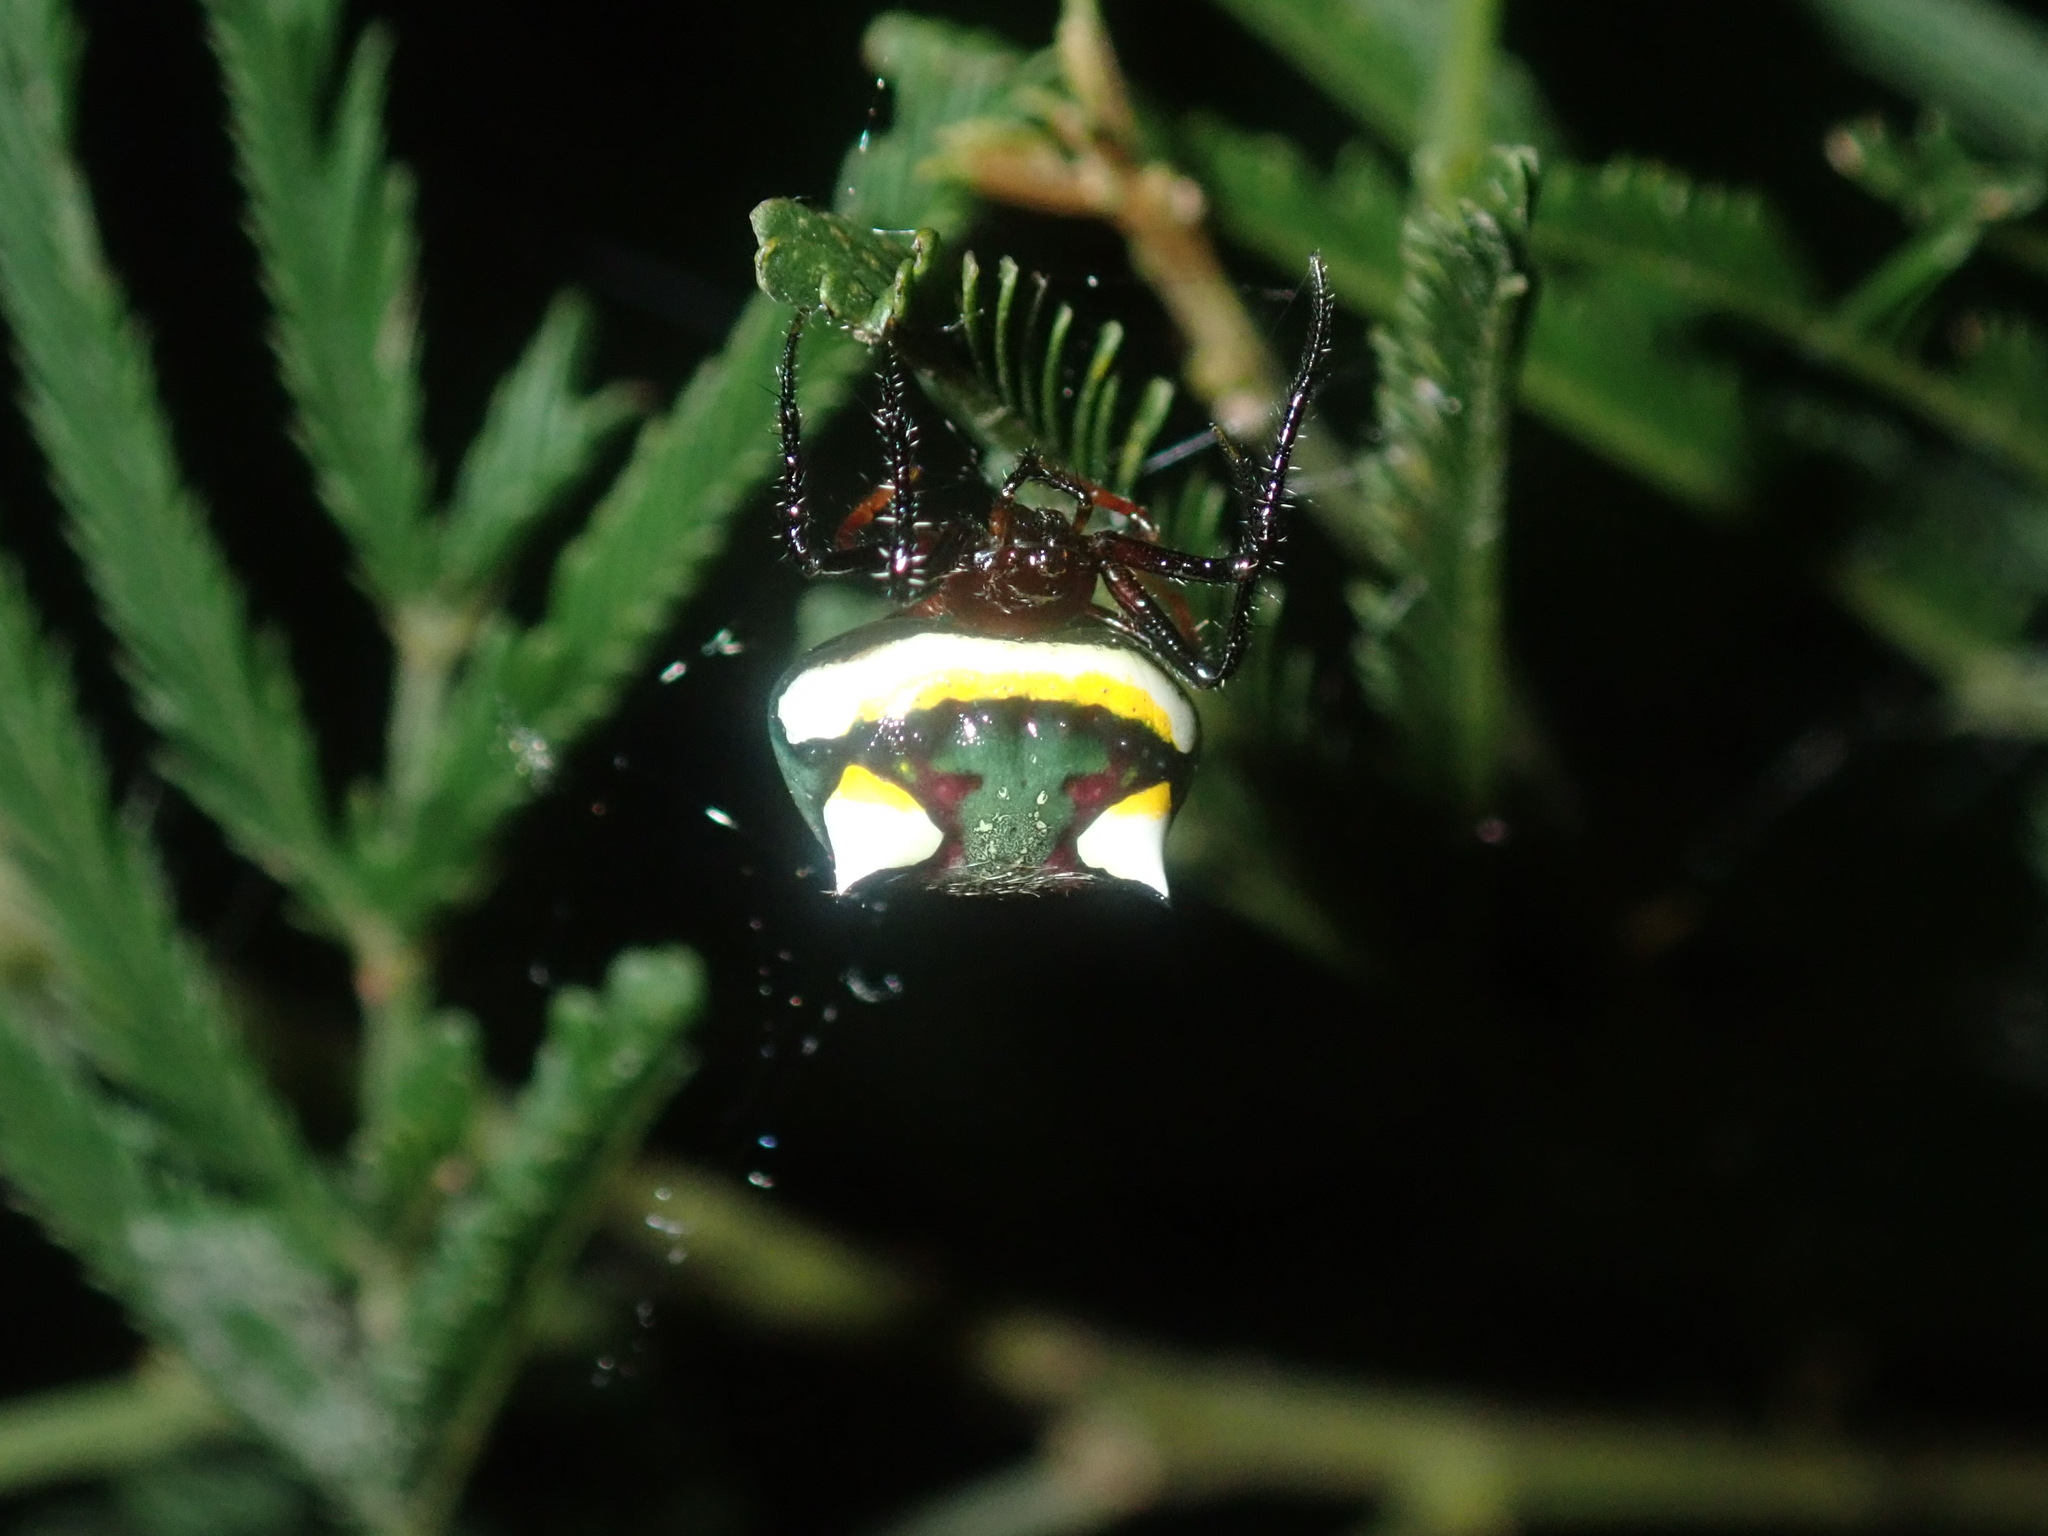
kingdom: Animalia
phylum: Arthropoda
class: Arachnida
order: Araneae
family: Araneidae
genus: Poecilopachys
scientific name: Poecilopachys australasia
